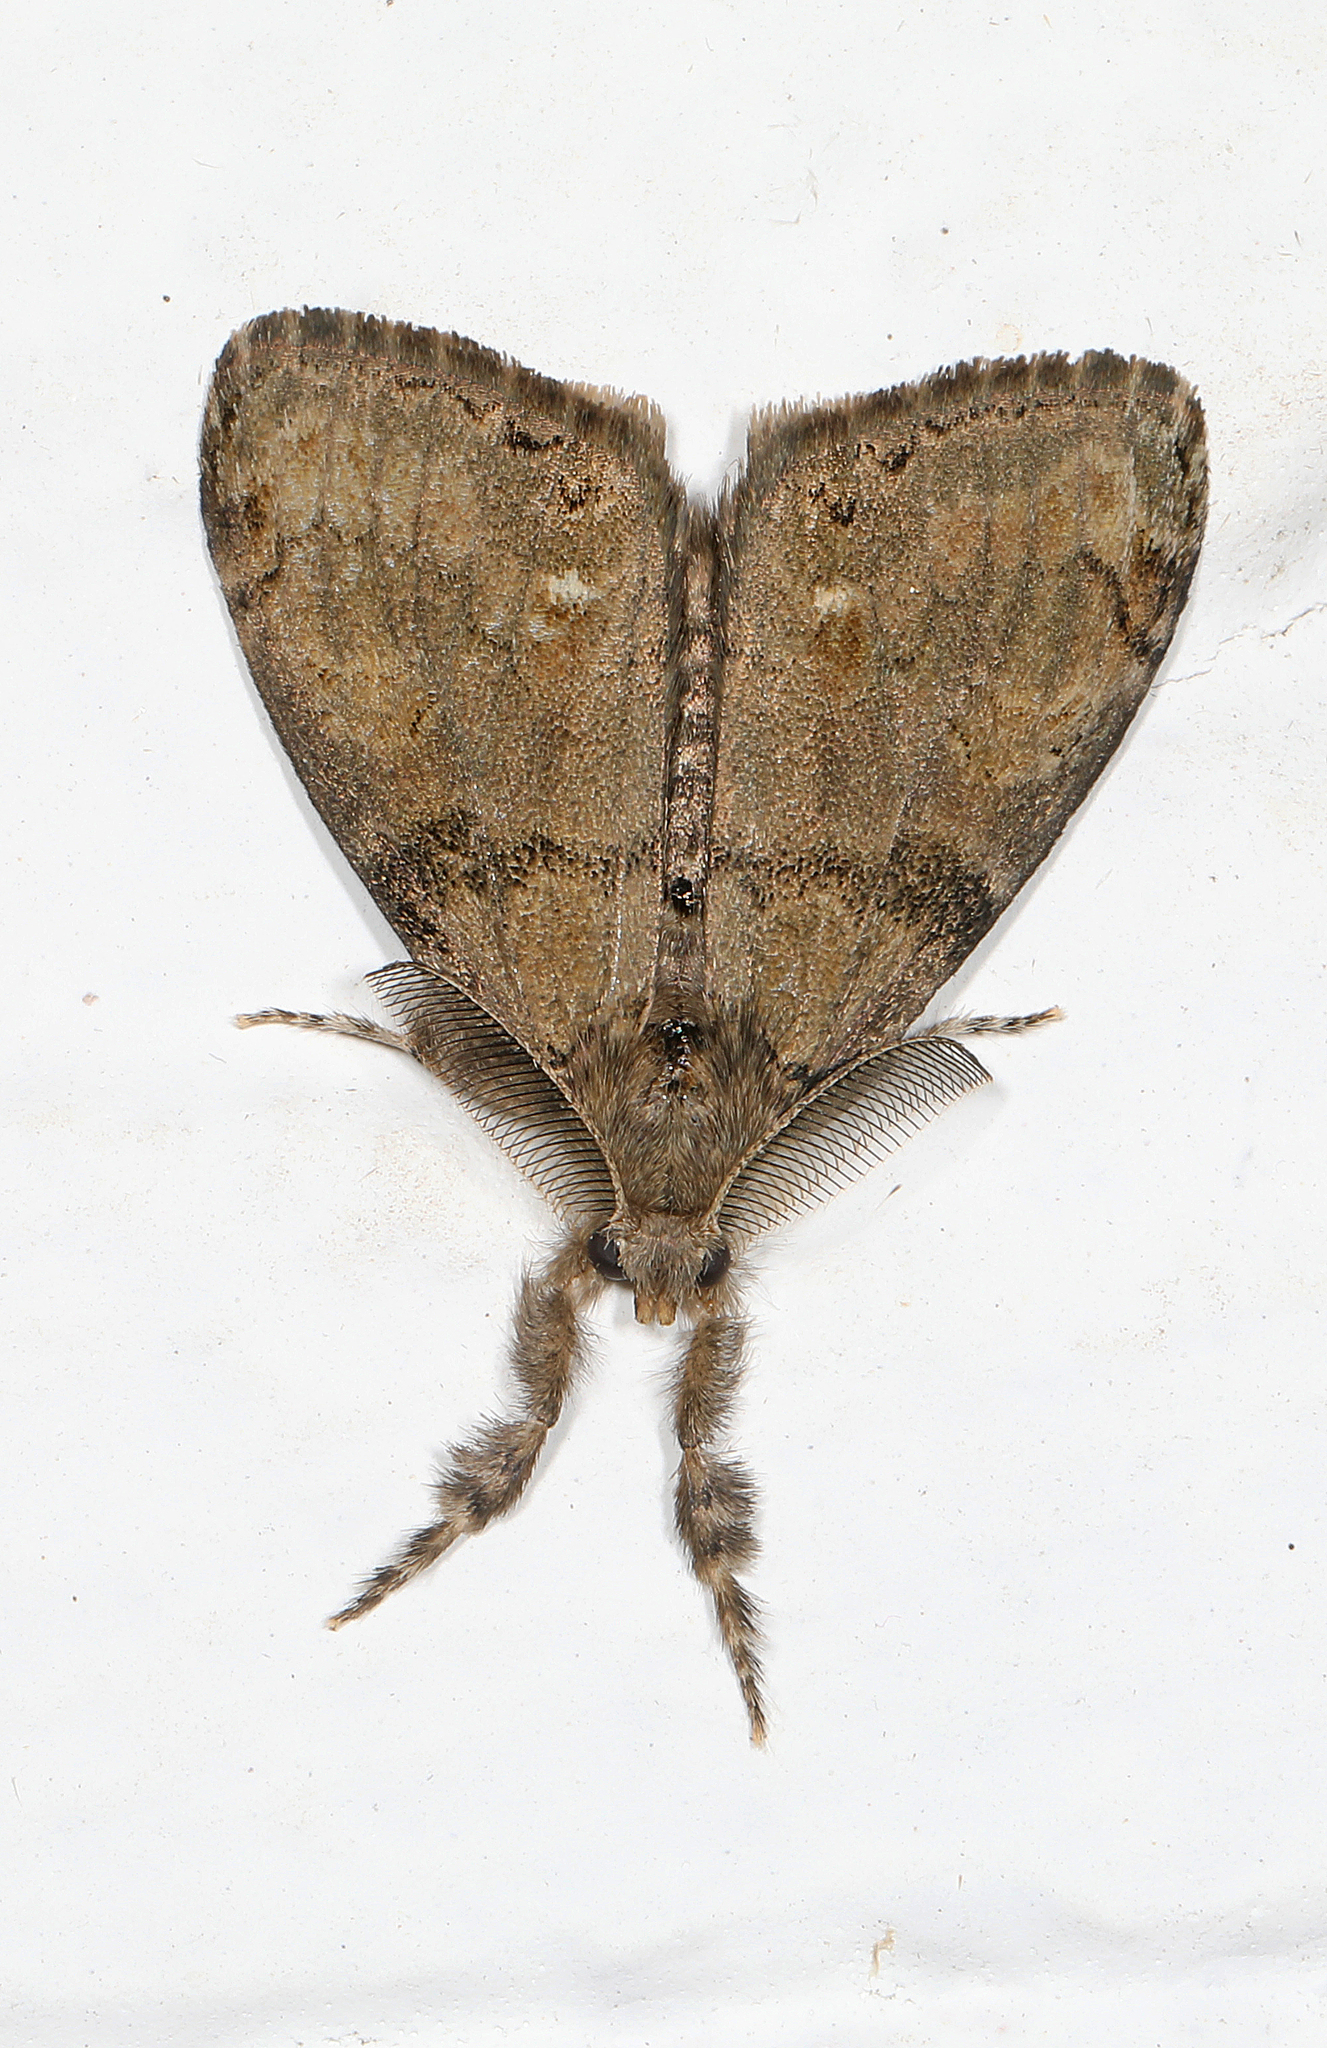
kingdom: Animalia
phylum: Arthropoda
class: Insecta
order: Lepidoptera
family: Erebidae
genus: Orgyia
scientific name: Orgyia leucostigma
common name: White-marked tussock moth
